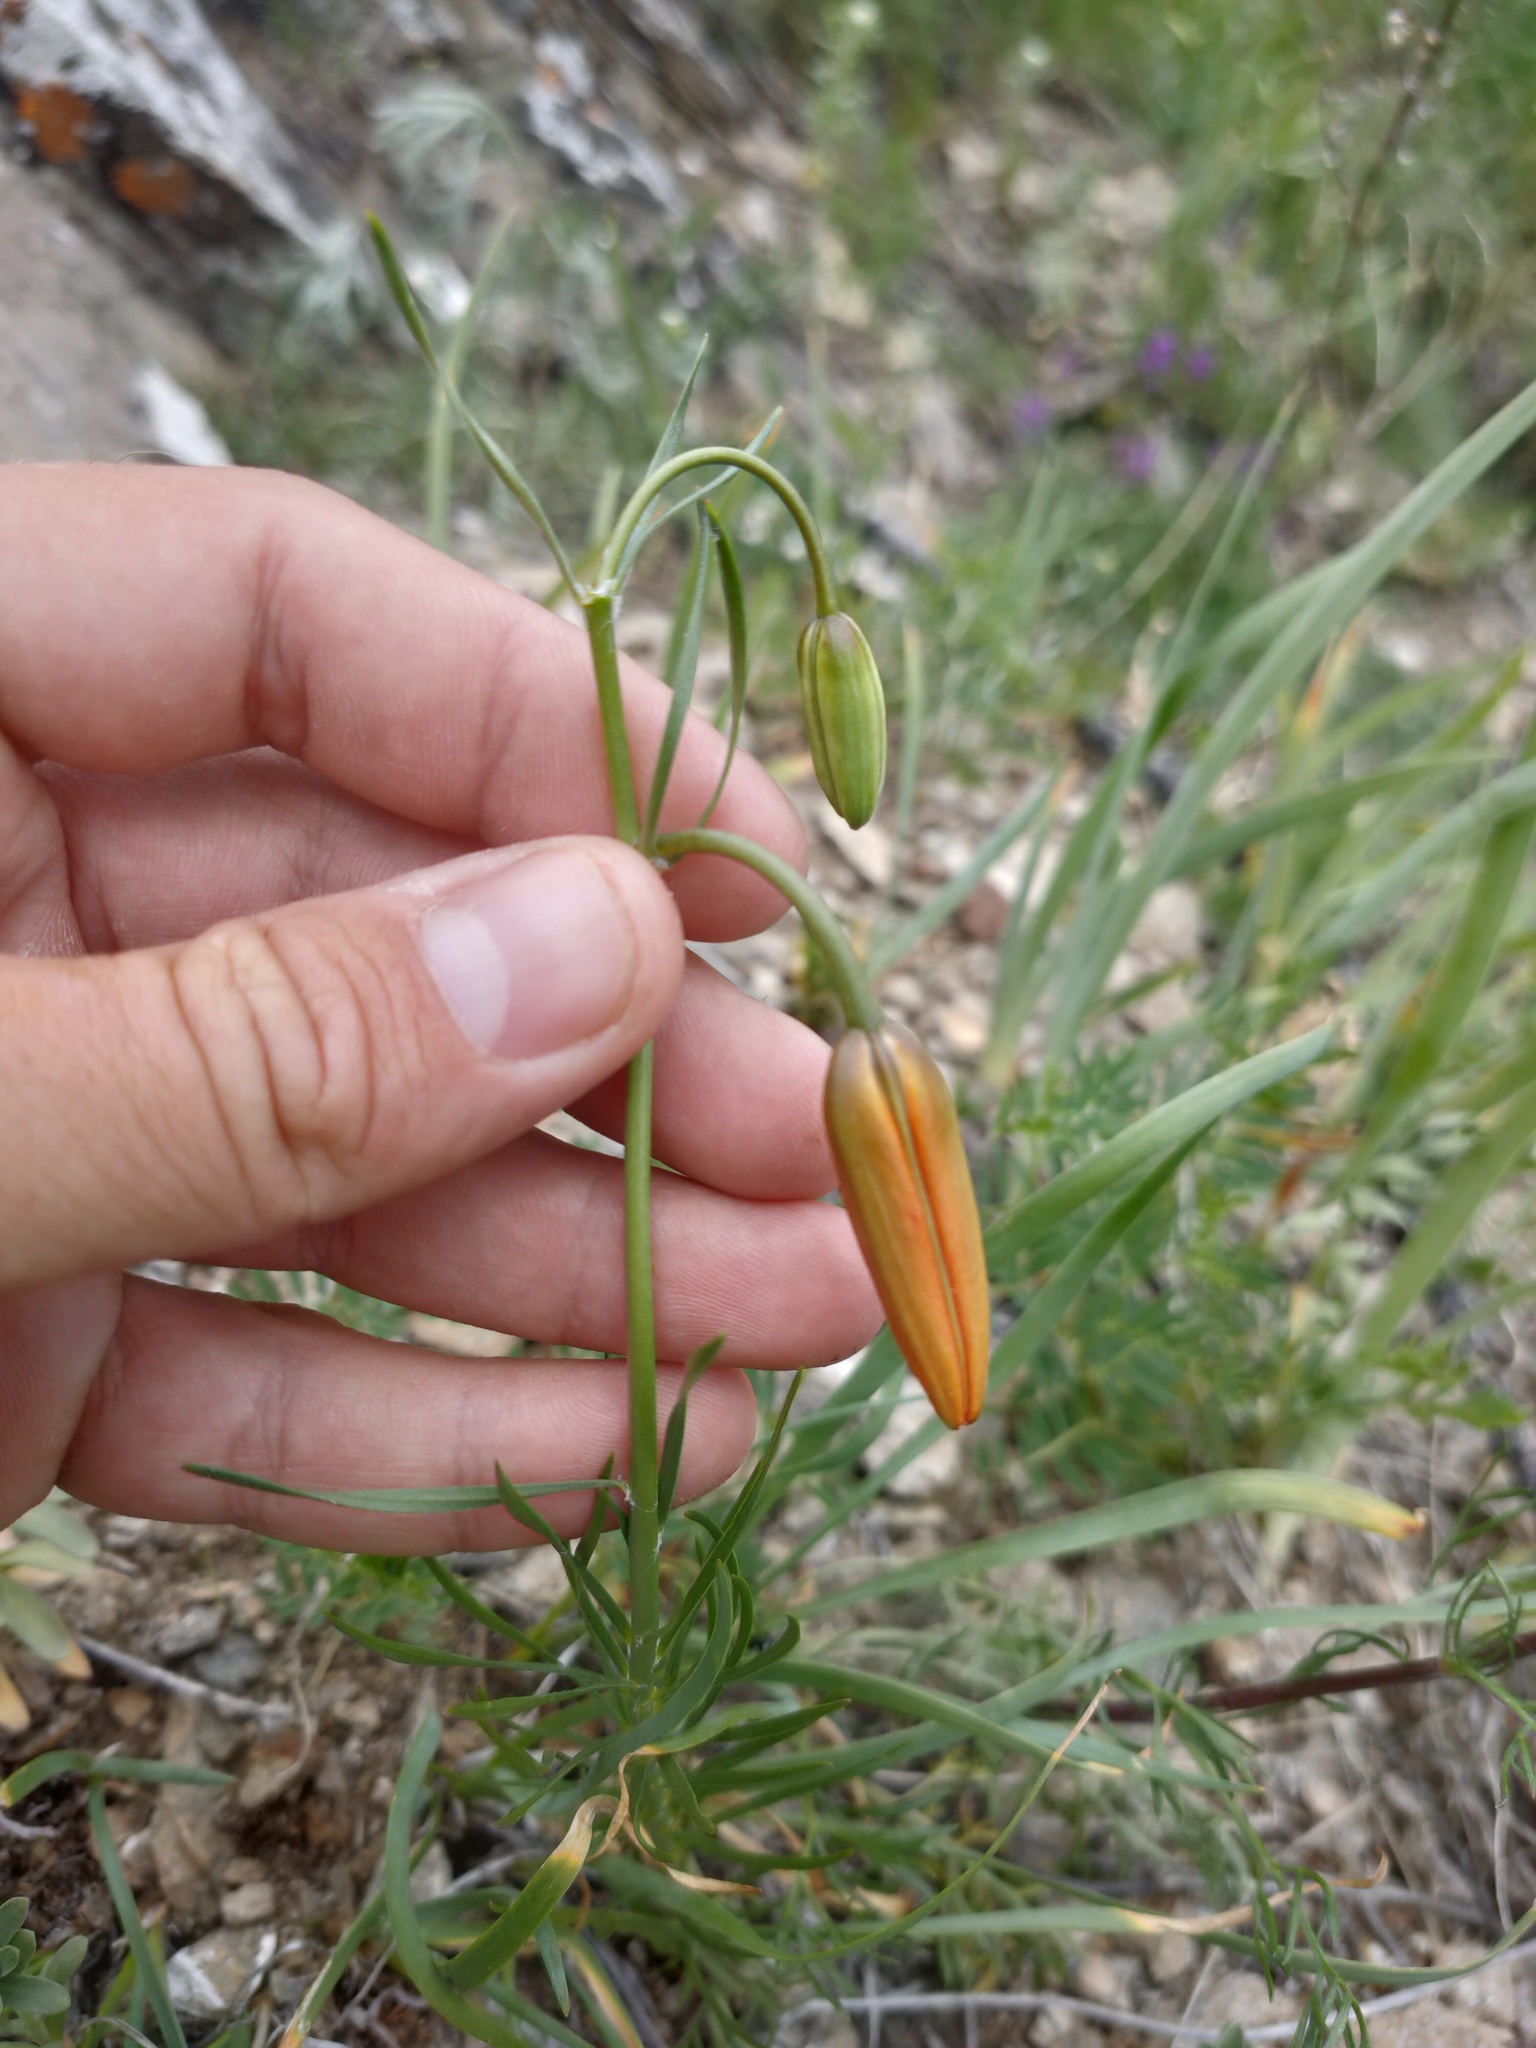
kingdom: Plantae
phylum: Tracheophyta
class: Liliopsida
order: Liliales
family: Liliaceae
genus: Lilium
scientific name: Lilium pumilum
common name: Coral lily
